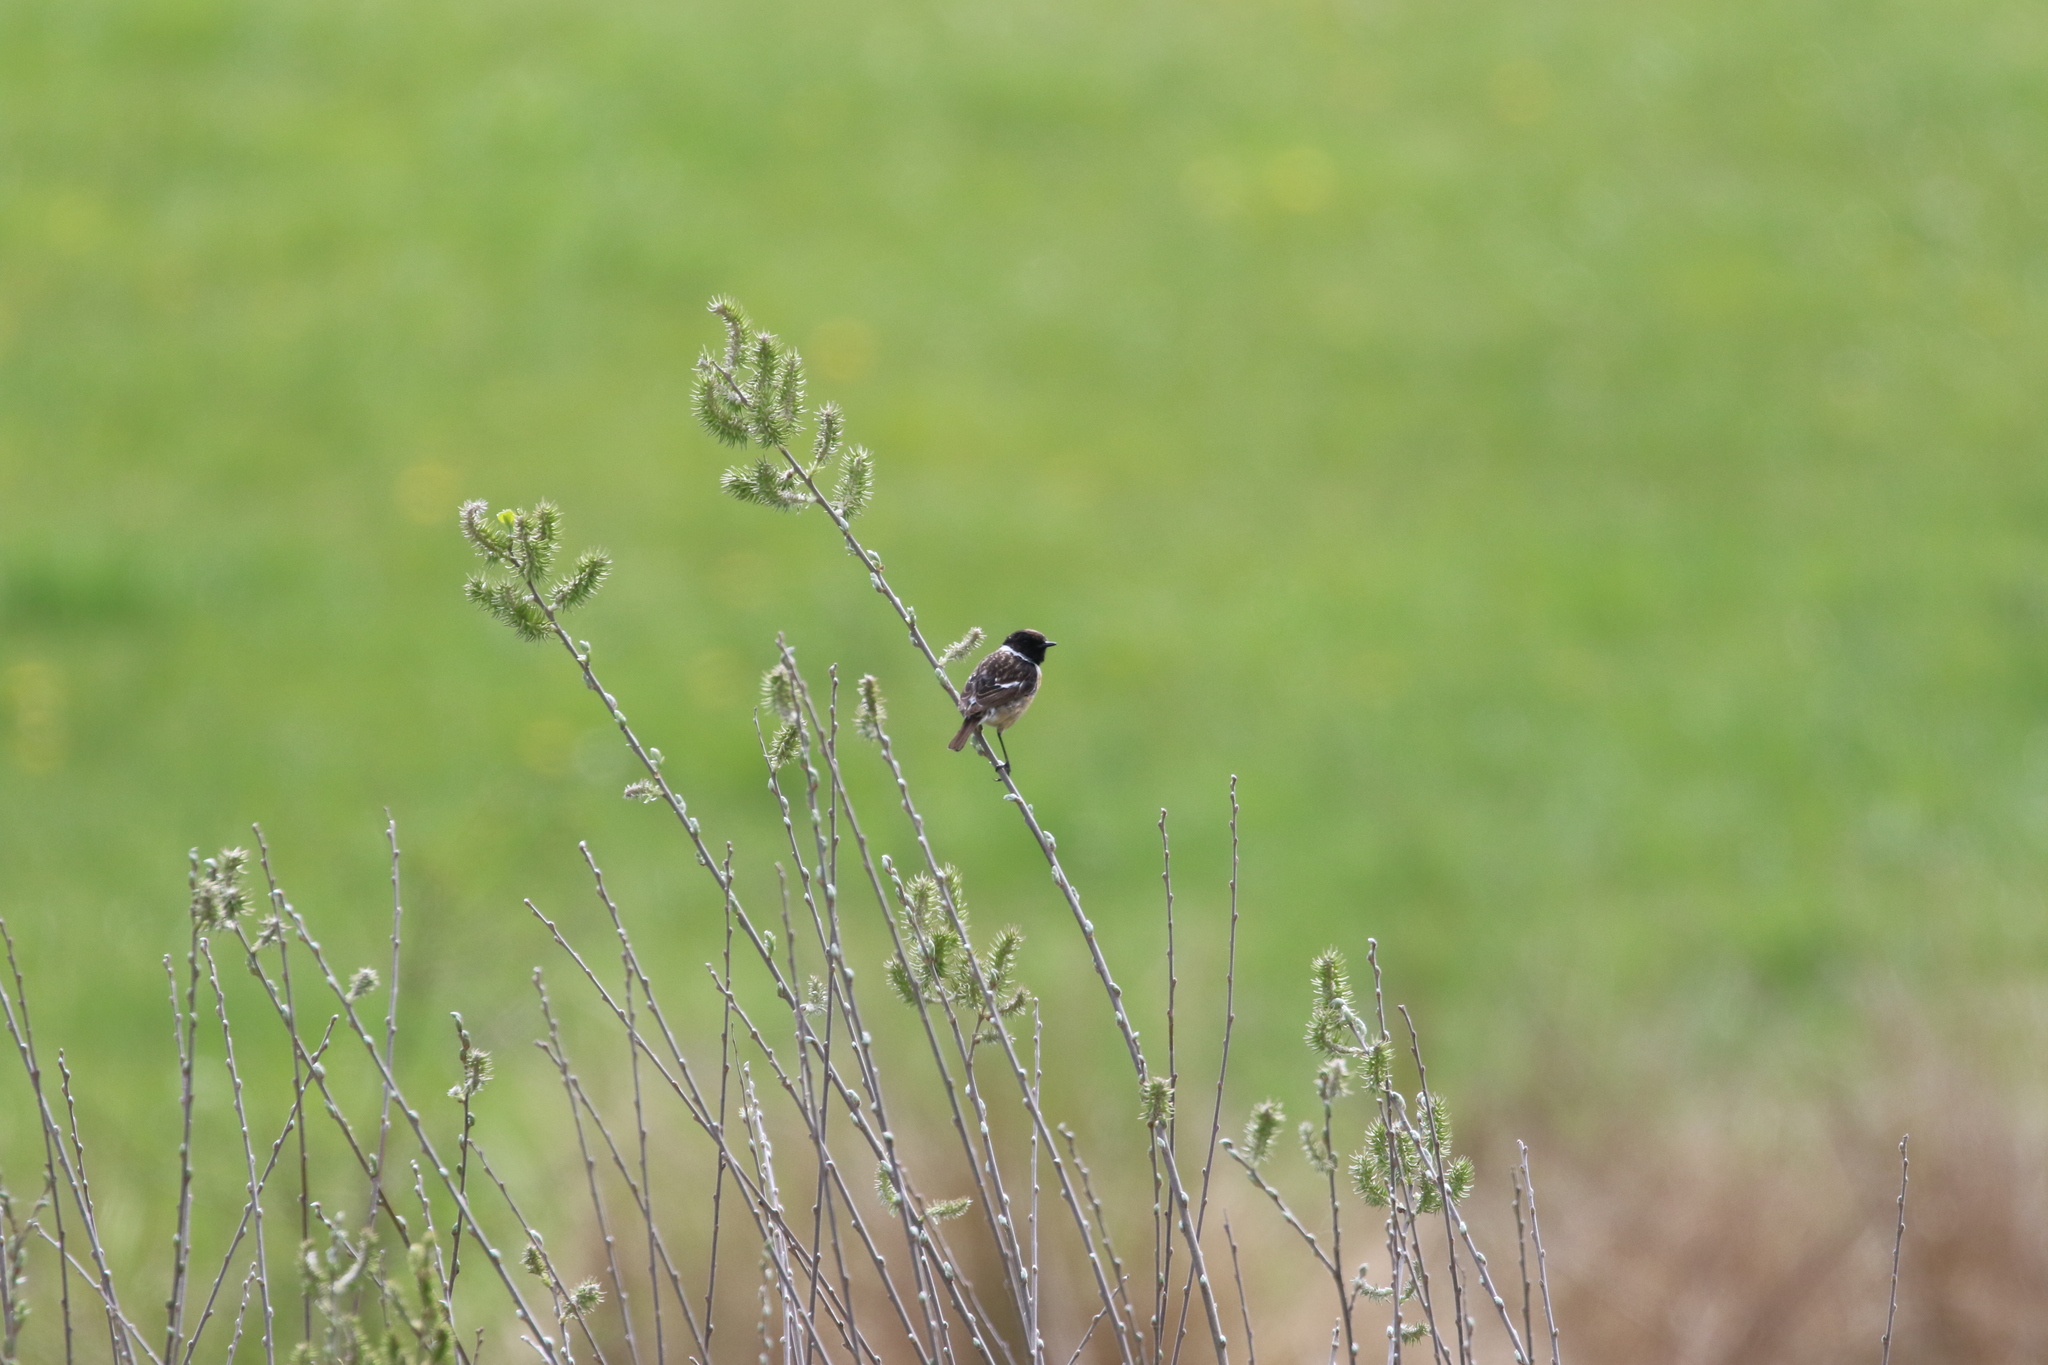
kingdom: Animalia
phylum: Chordata
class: Aves
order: Passeriformes
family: Muscicapidae
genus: Saxicola
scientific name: Saxicola rubicola
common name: European stonechat
